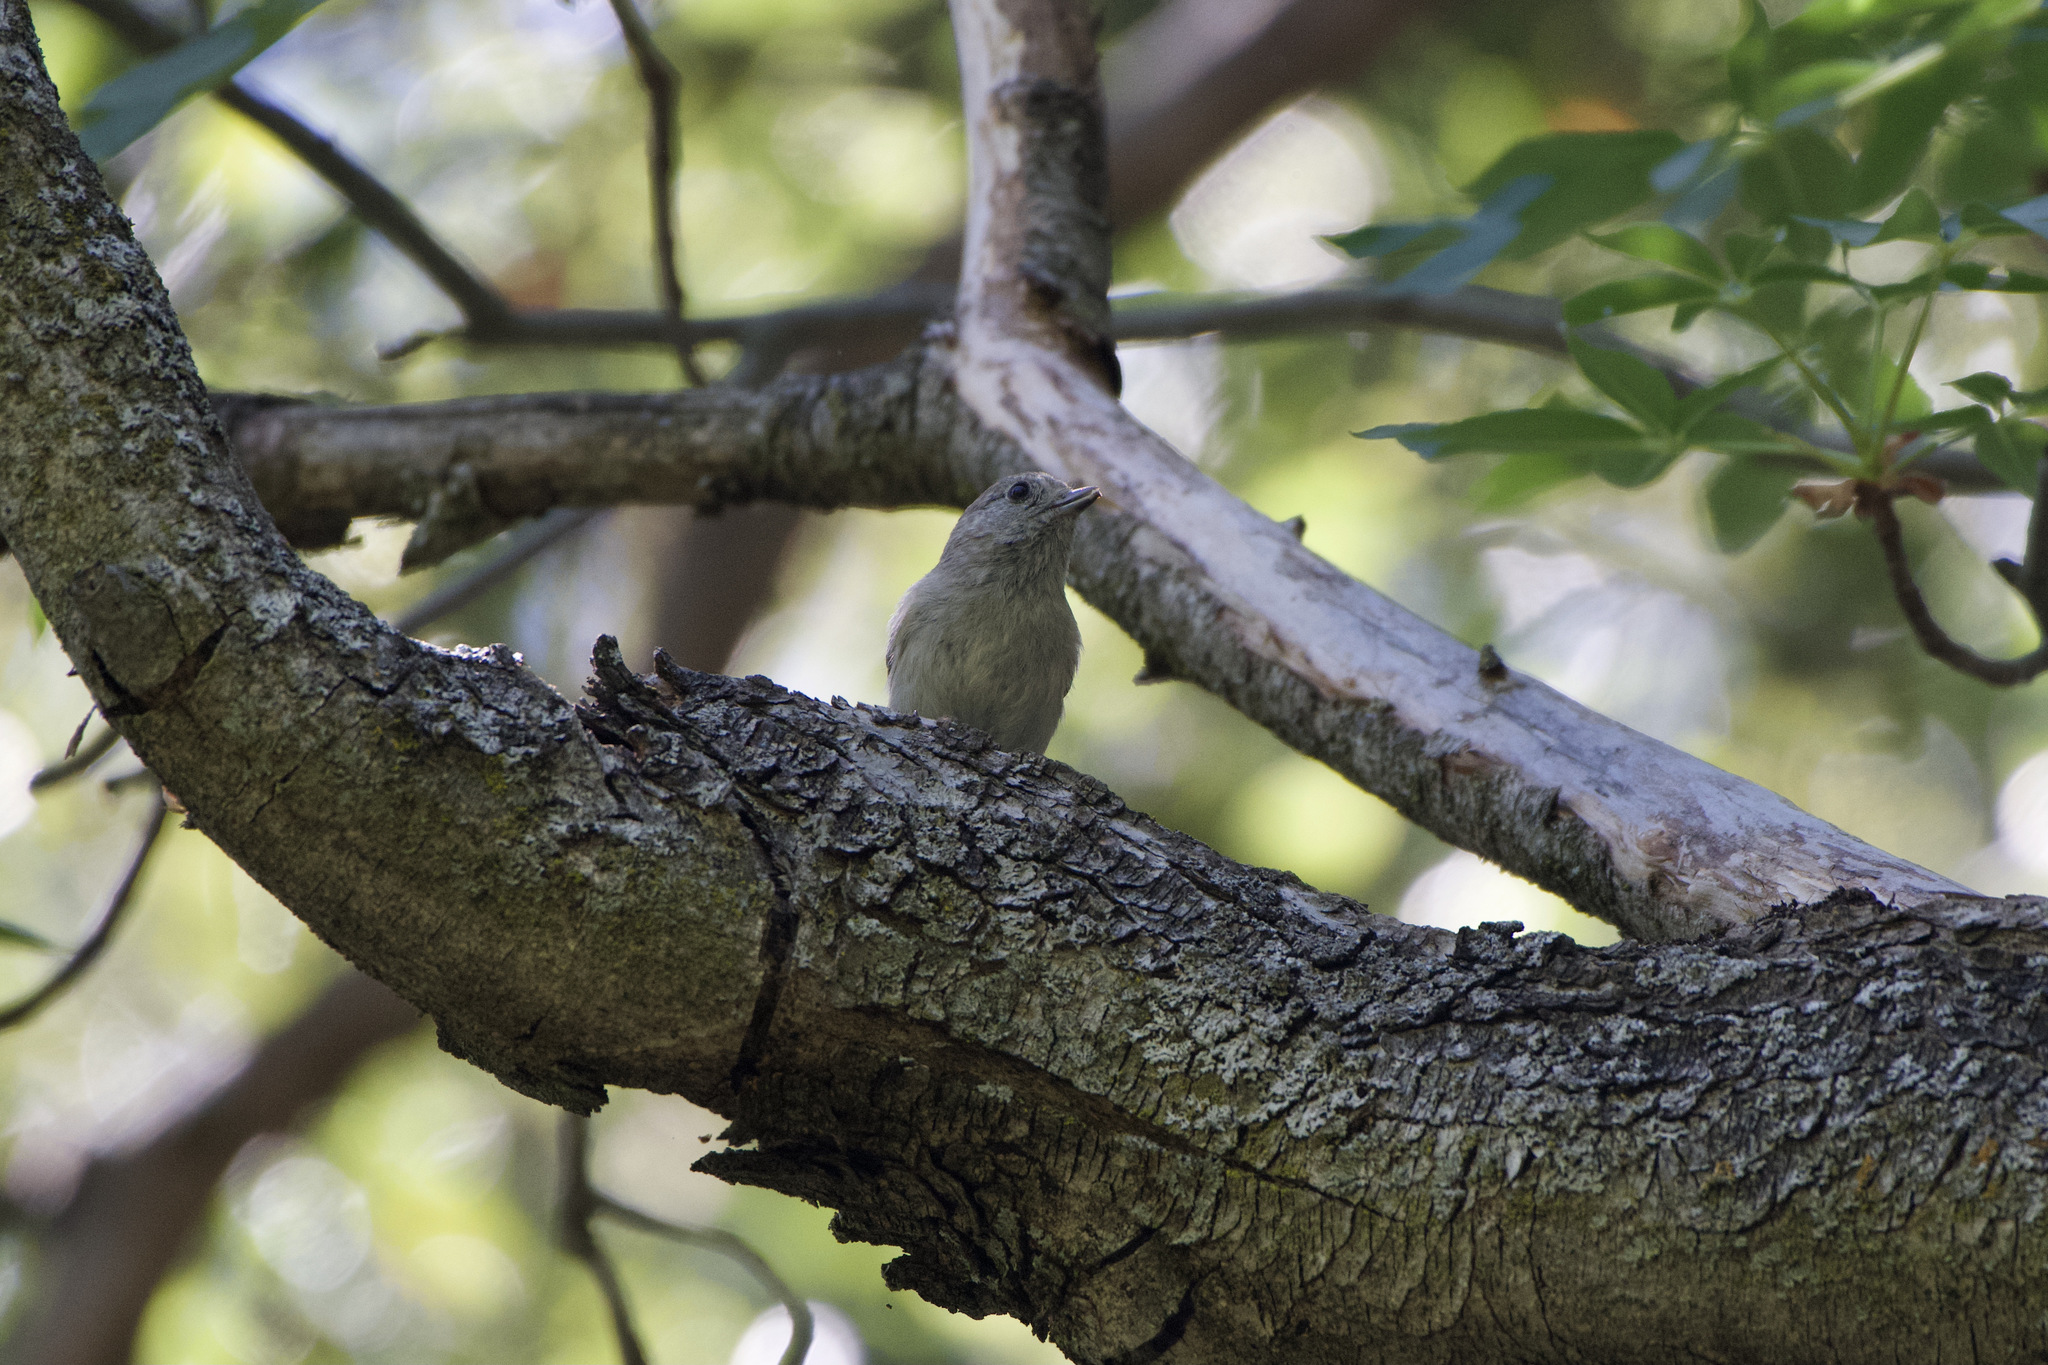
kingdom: Animalia
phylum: Chordata
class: Aves
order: Passeriformes
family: Paridae
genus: Baeolophus
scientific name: Baeolophus inornatus
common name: Oak titmouse
